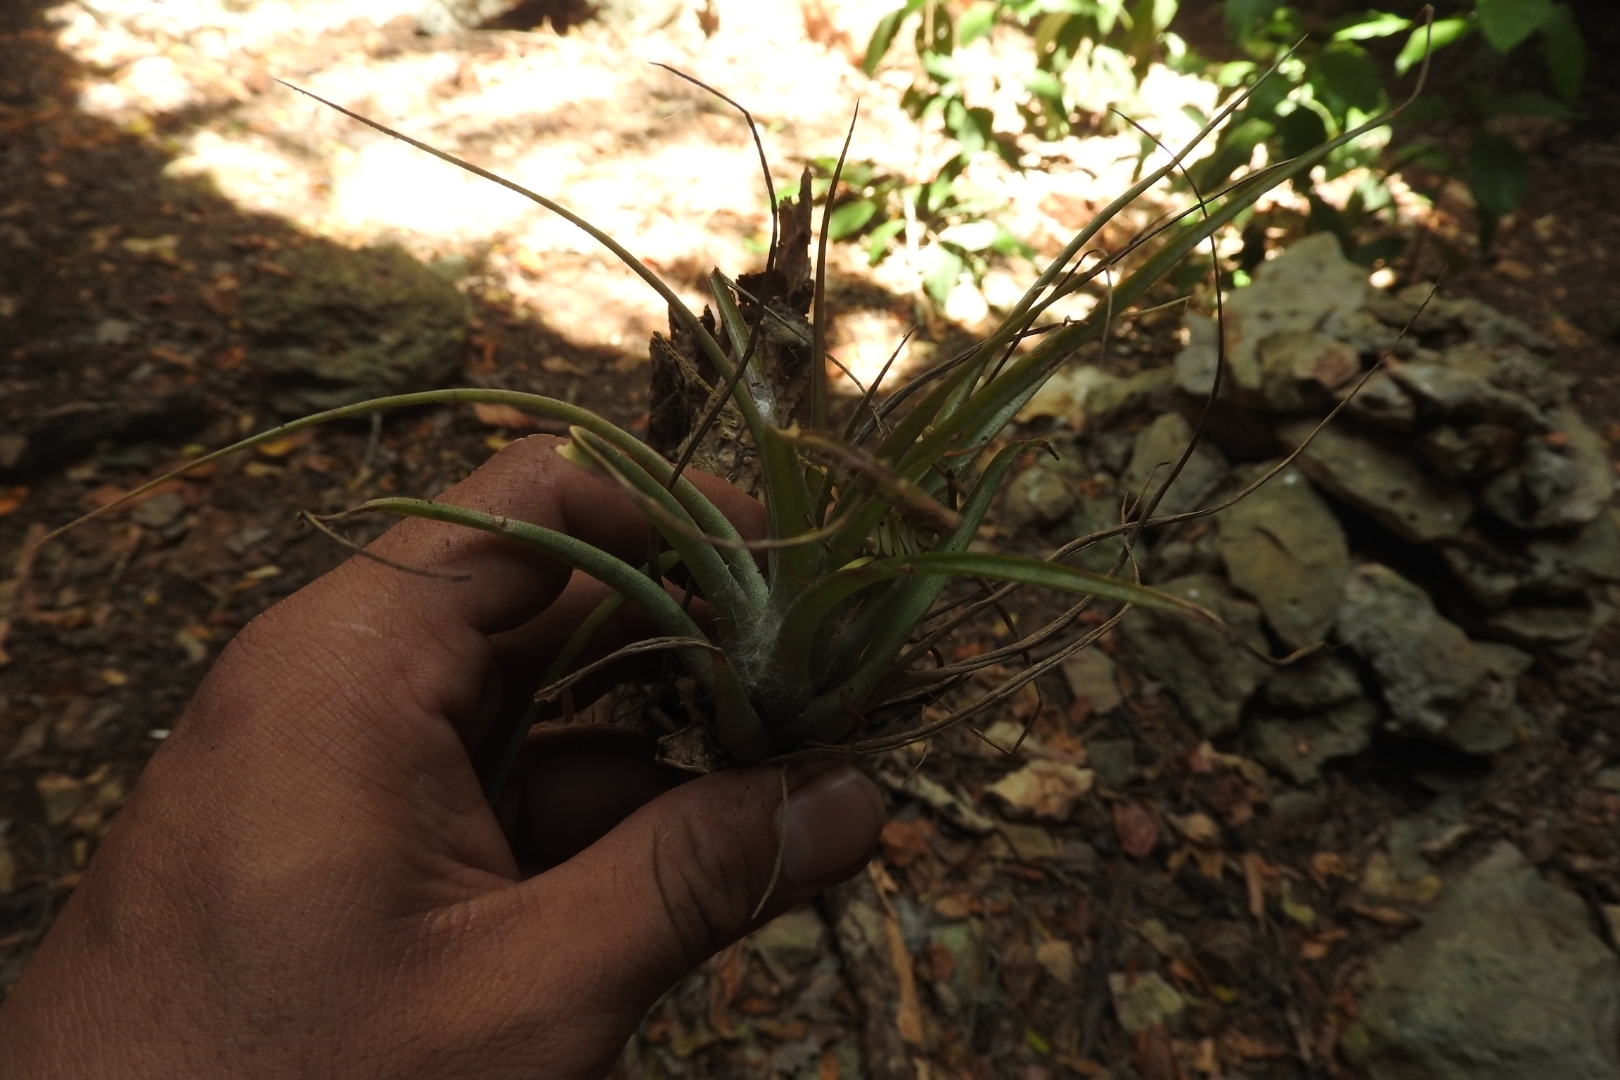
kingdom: Plantae
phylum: Tracheophyta
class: Liliopsida
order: Poales
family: Bromeliaceae
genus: Tillandsia
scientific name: Tillandsia fasciculata
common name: Giant airplant
